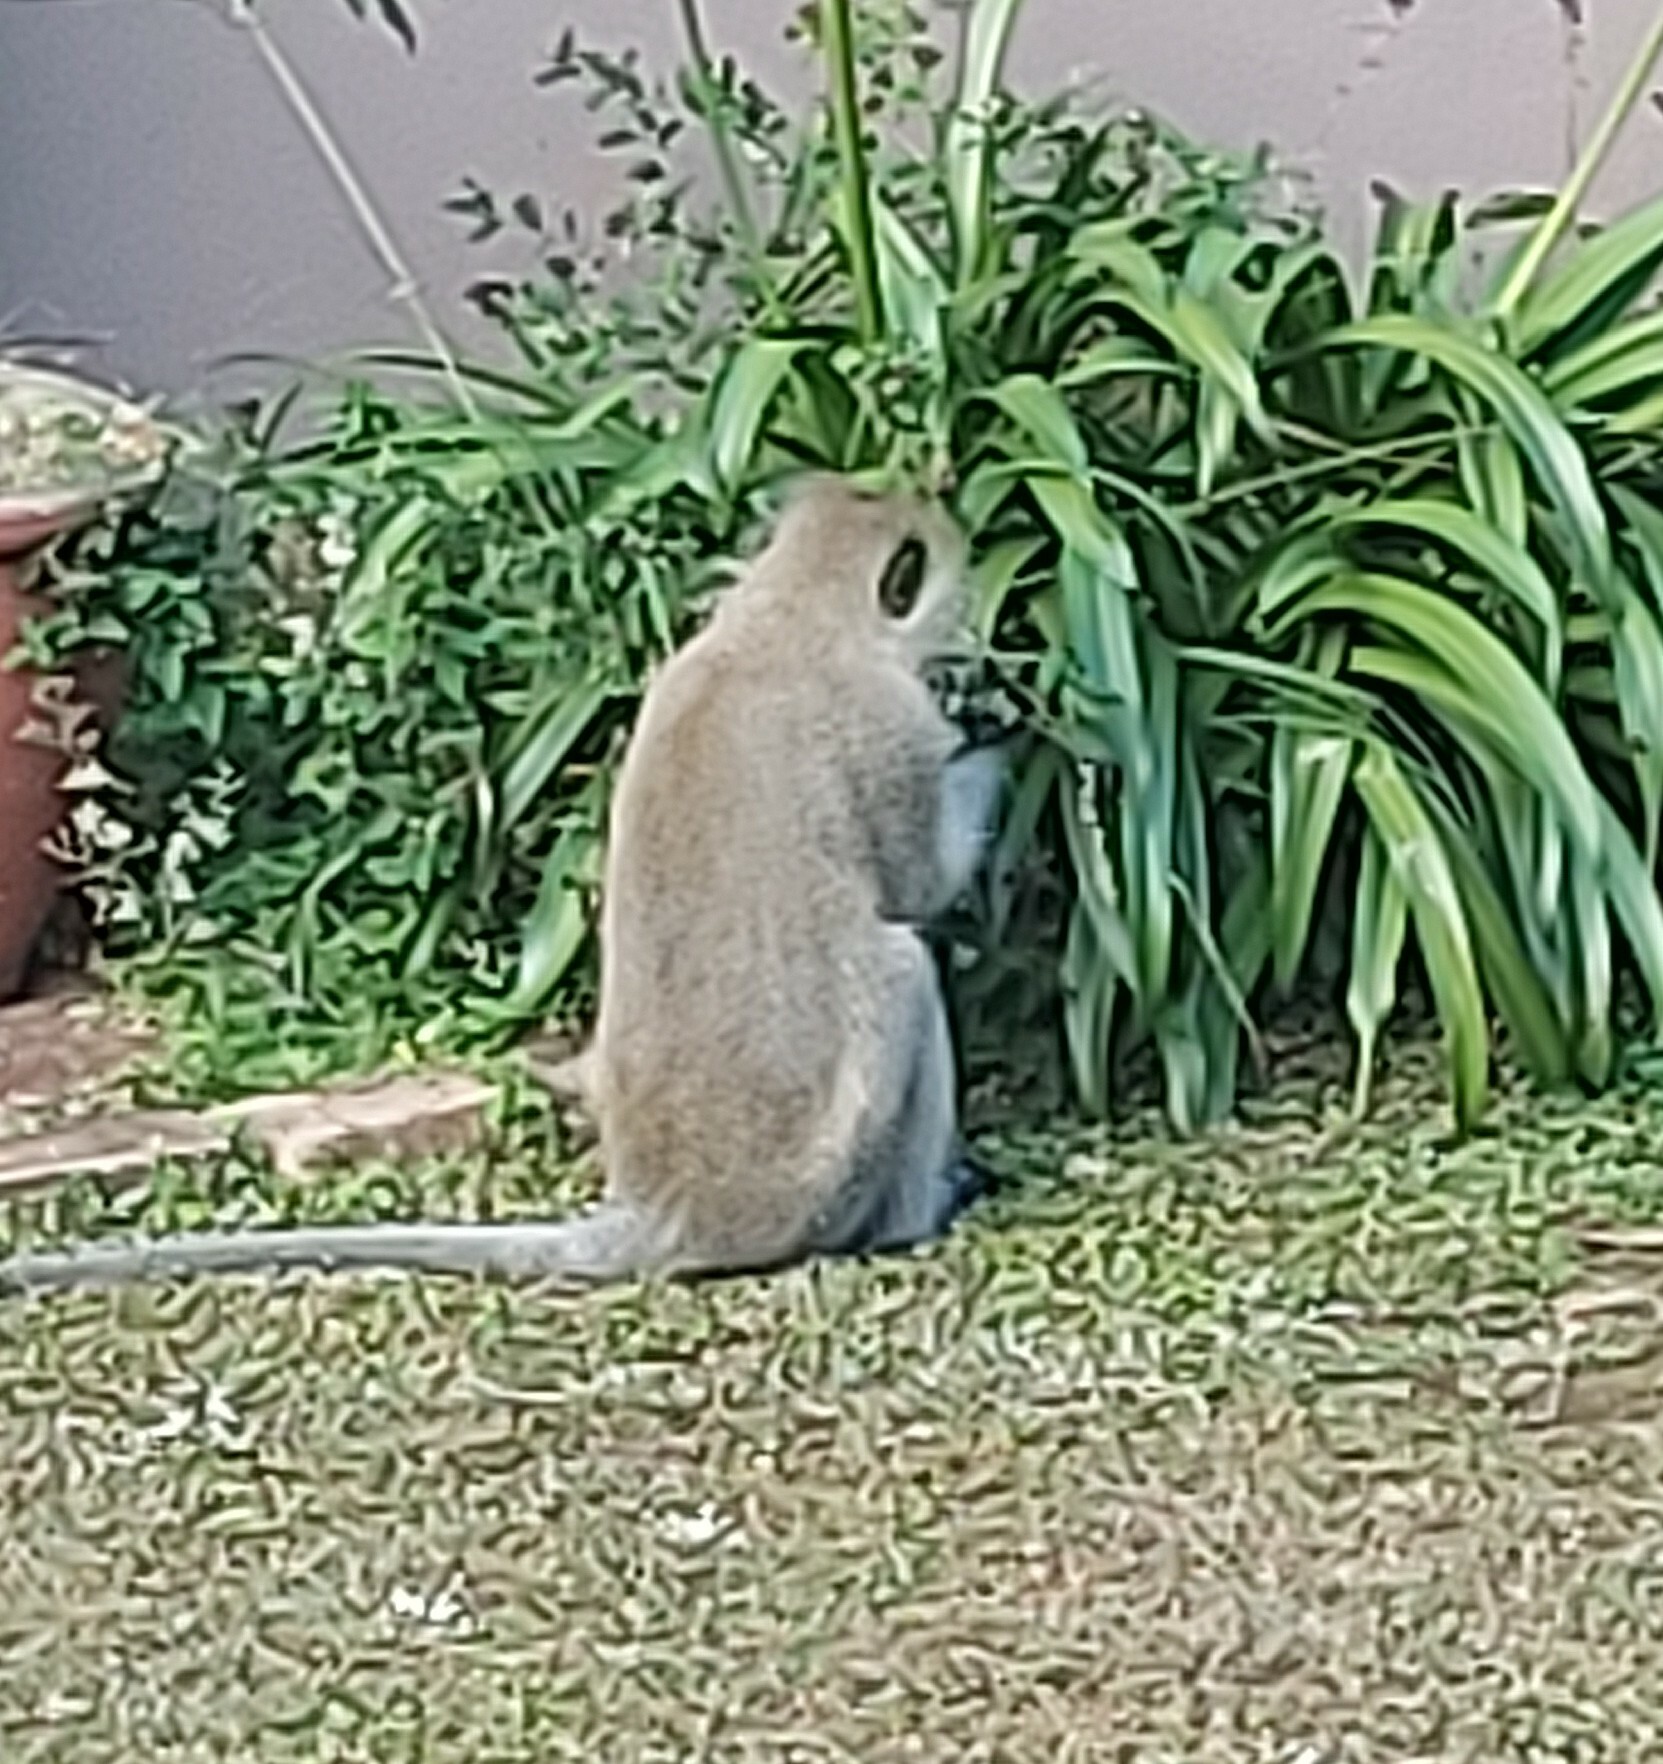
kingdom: Animalia
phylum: Chordata
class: Mammalia
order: Primates
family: Cercopithecidae
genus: Chlorocebus
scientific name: Chlorocebus pygerythrus
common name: Vervet monkey
